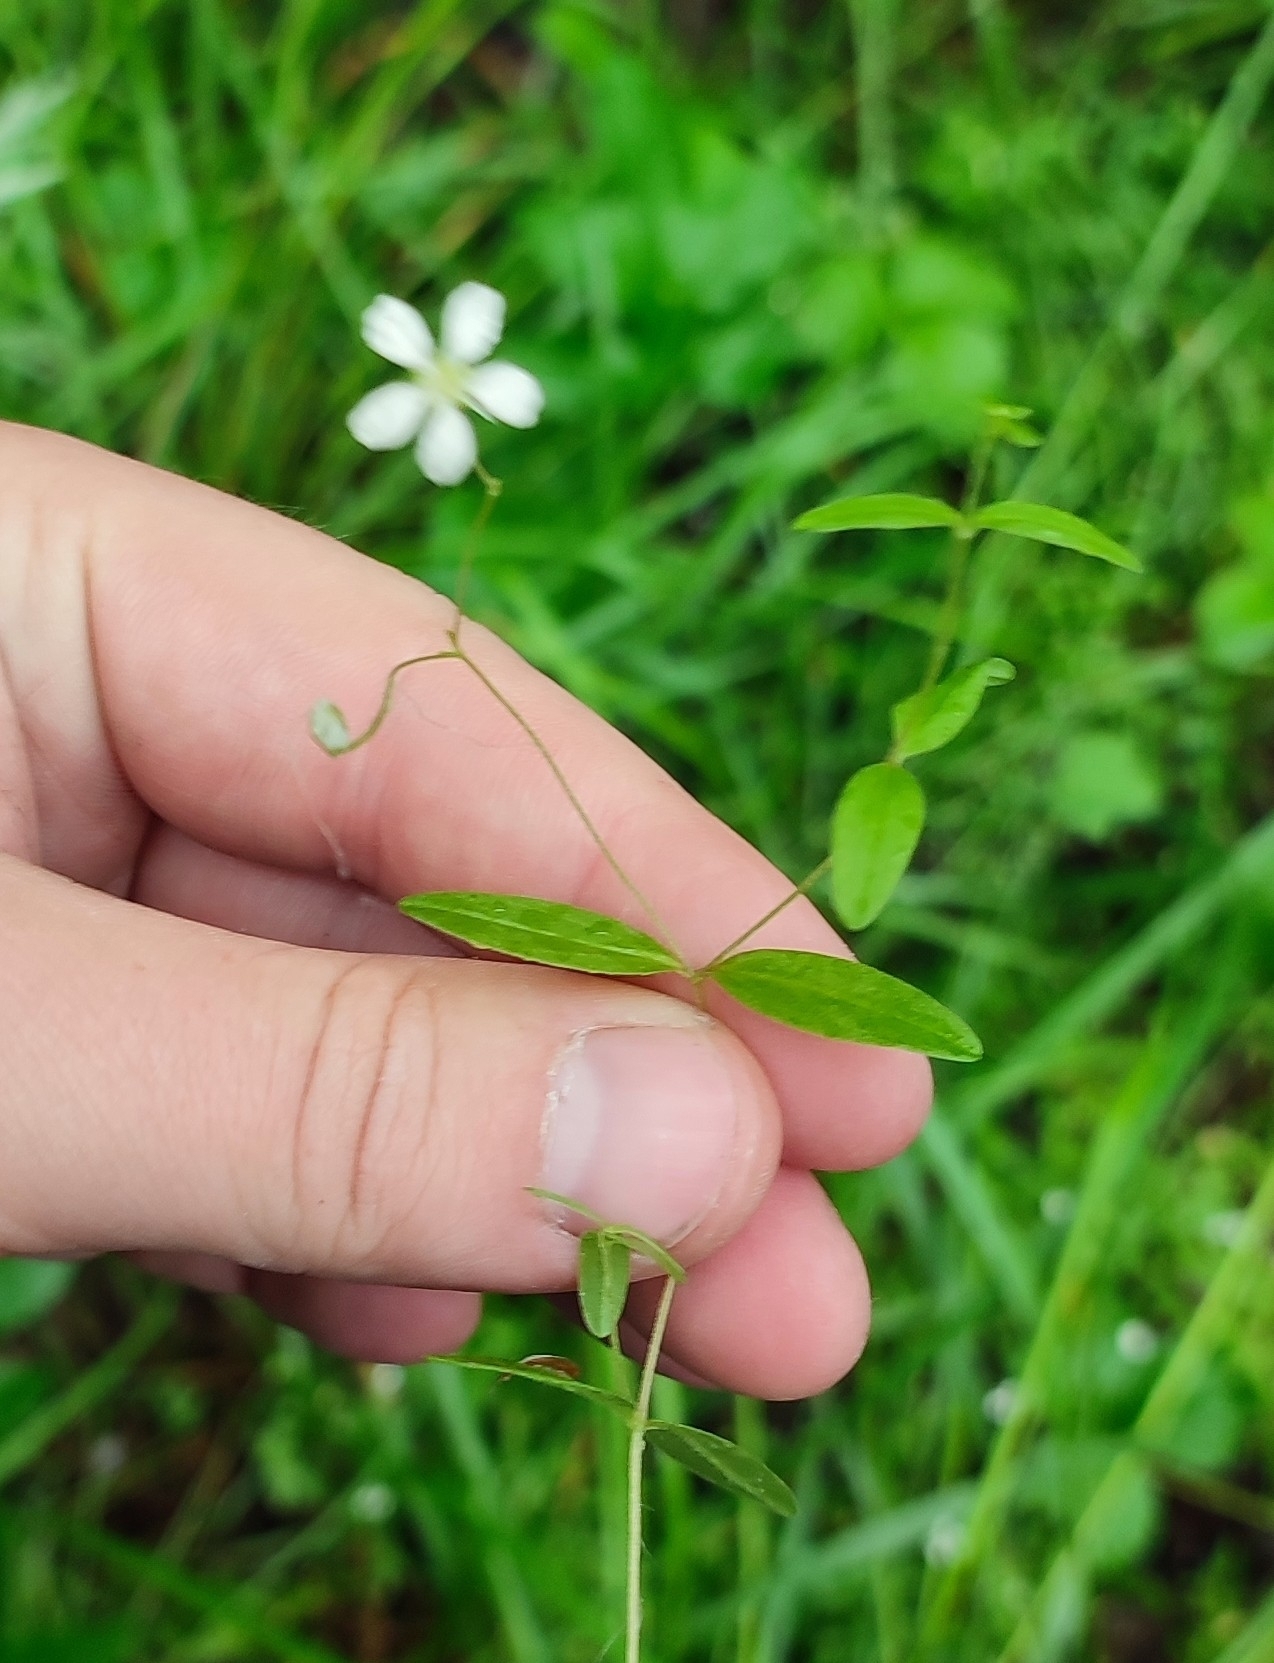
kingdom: Plantae
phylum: Tracheophyta
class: Magnoliopsida
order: Caryophyllales
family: Caryophyllaceae
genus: Moehringia
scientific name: Moehringia lateriflora
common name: Blunt-leaved sandwort
